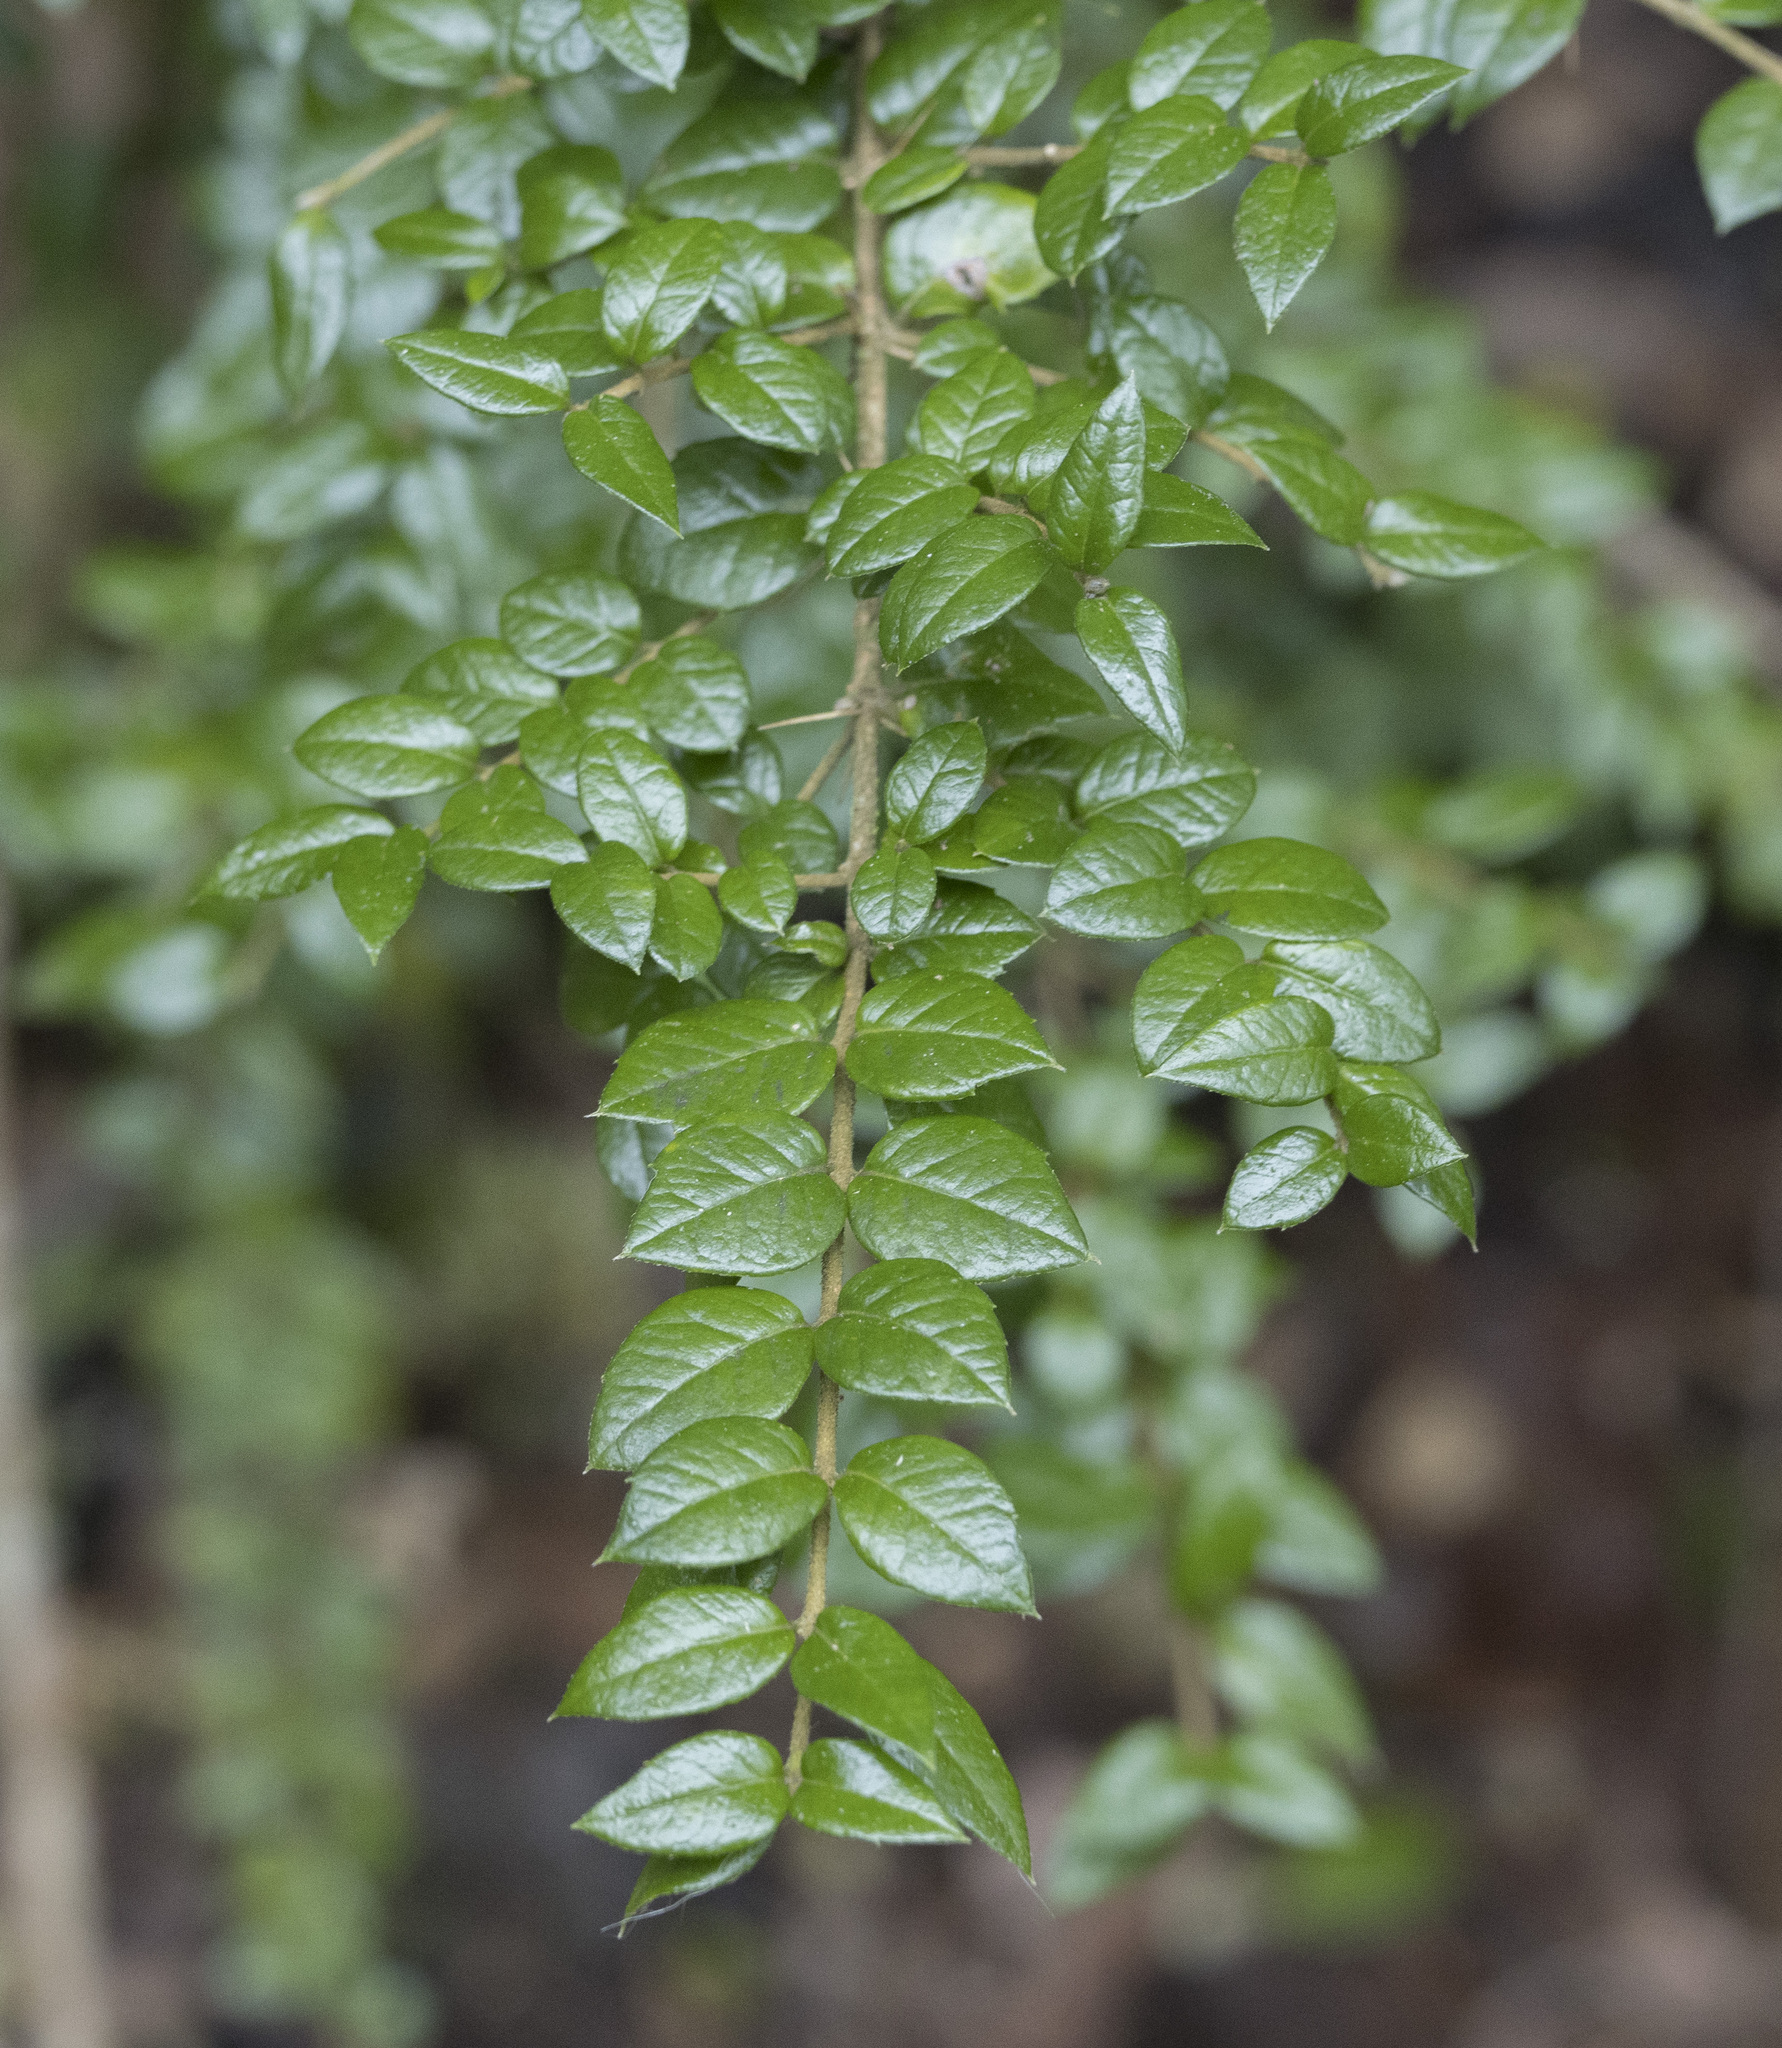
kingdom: Plantae
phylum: Tracheophyta
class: Magnoliopsida
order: Lamiales
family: Verbenaceae
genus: Rhaphithamnus
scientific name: Rhaphithamnus spinosus
